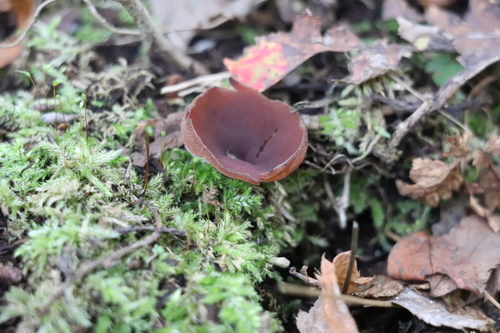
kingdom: Fungi
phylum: Ascomycota
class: Pezizomycetes
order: Pezizales
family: Pezizaceae
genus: Legaliana
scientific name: Legaliana
